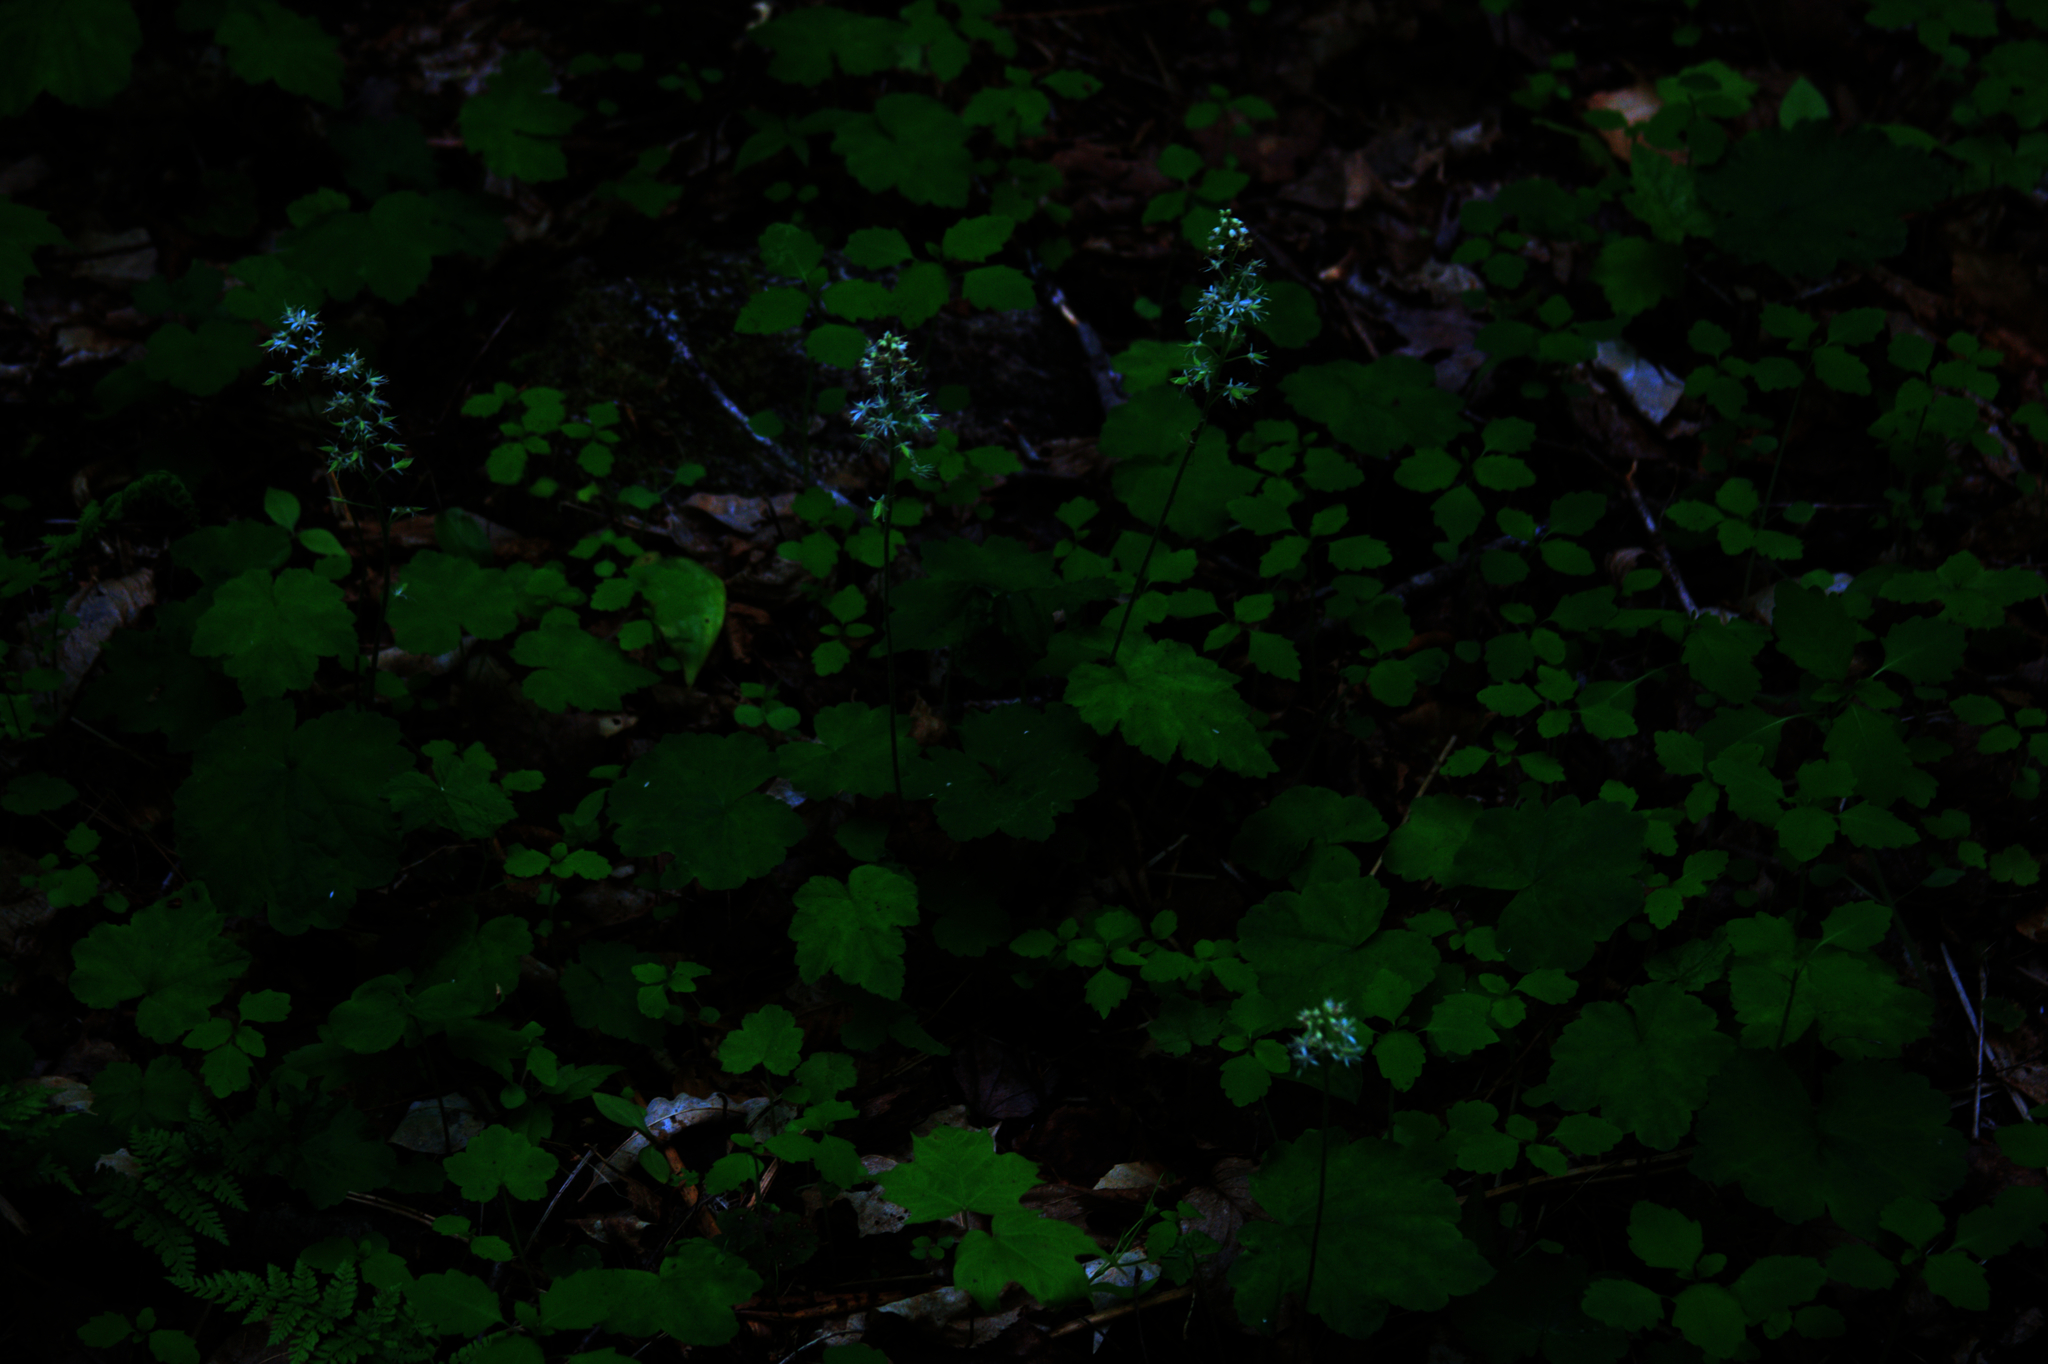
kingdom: Plantae
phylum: Tracheophyta
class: Magnoliopsida
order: Saxifragales
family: Saxifragaceae
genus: Tiarella
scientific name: Tiarella stolonifera
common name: Stoloniferous foamflower
